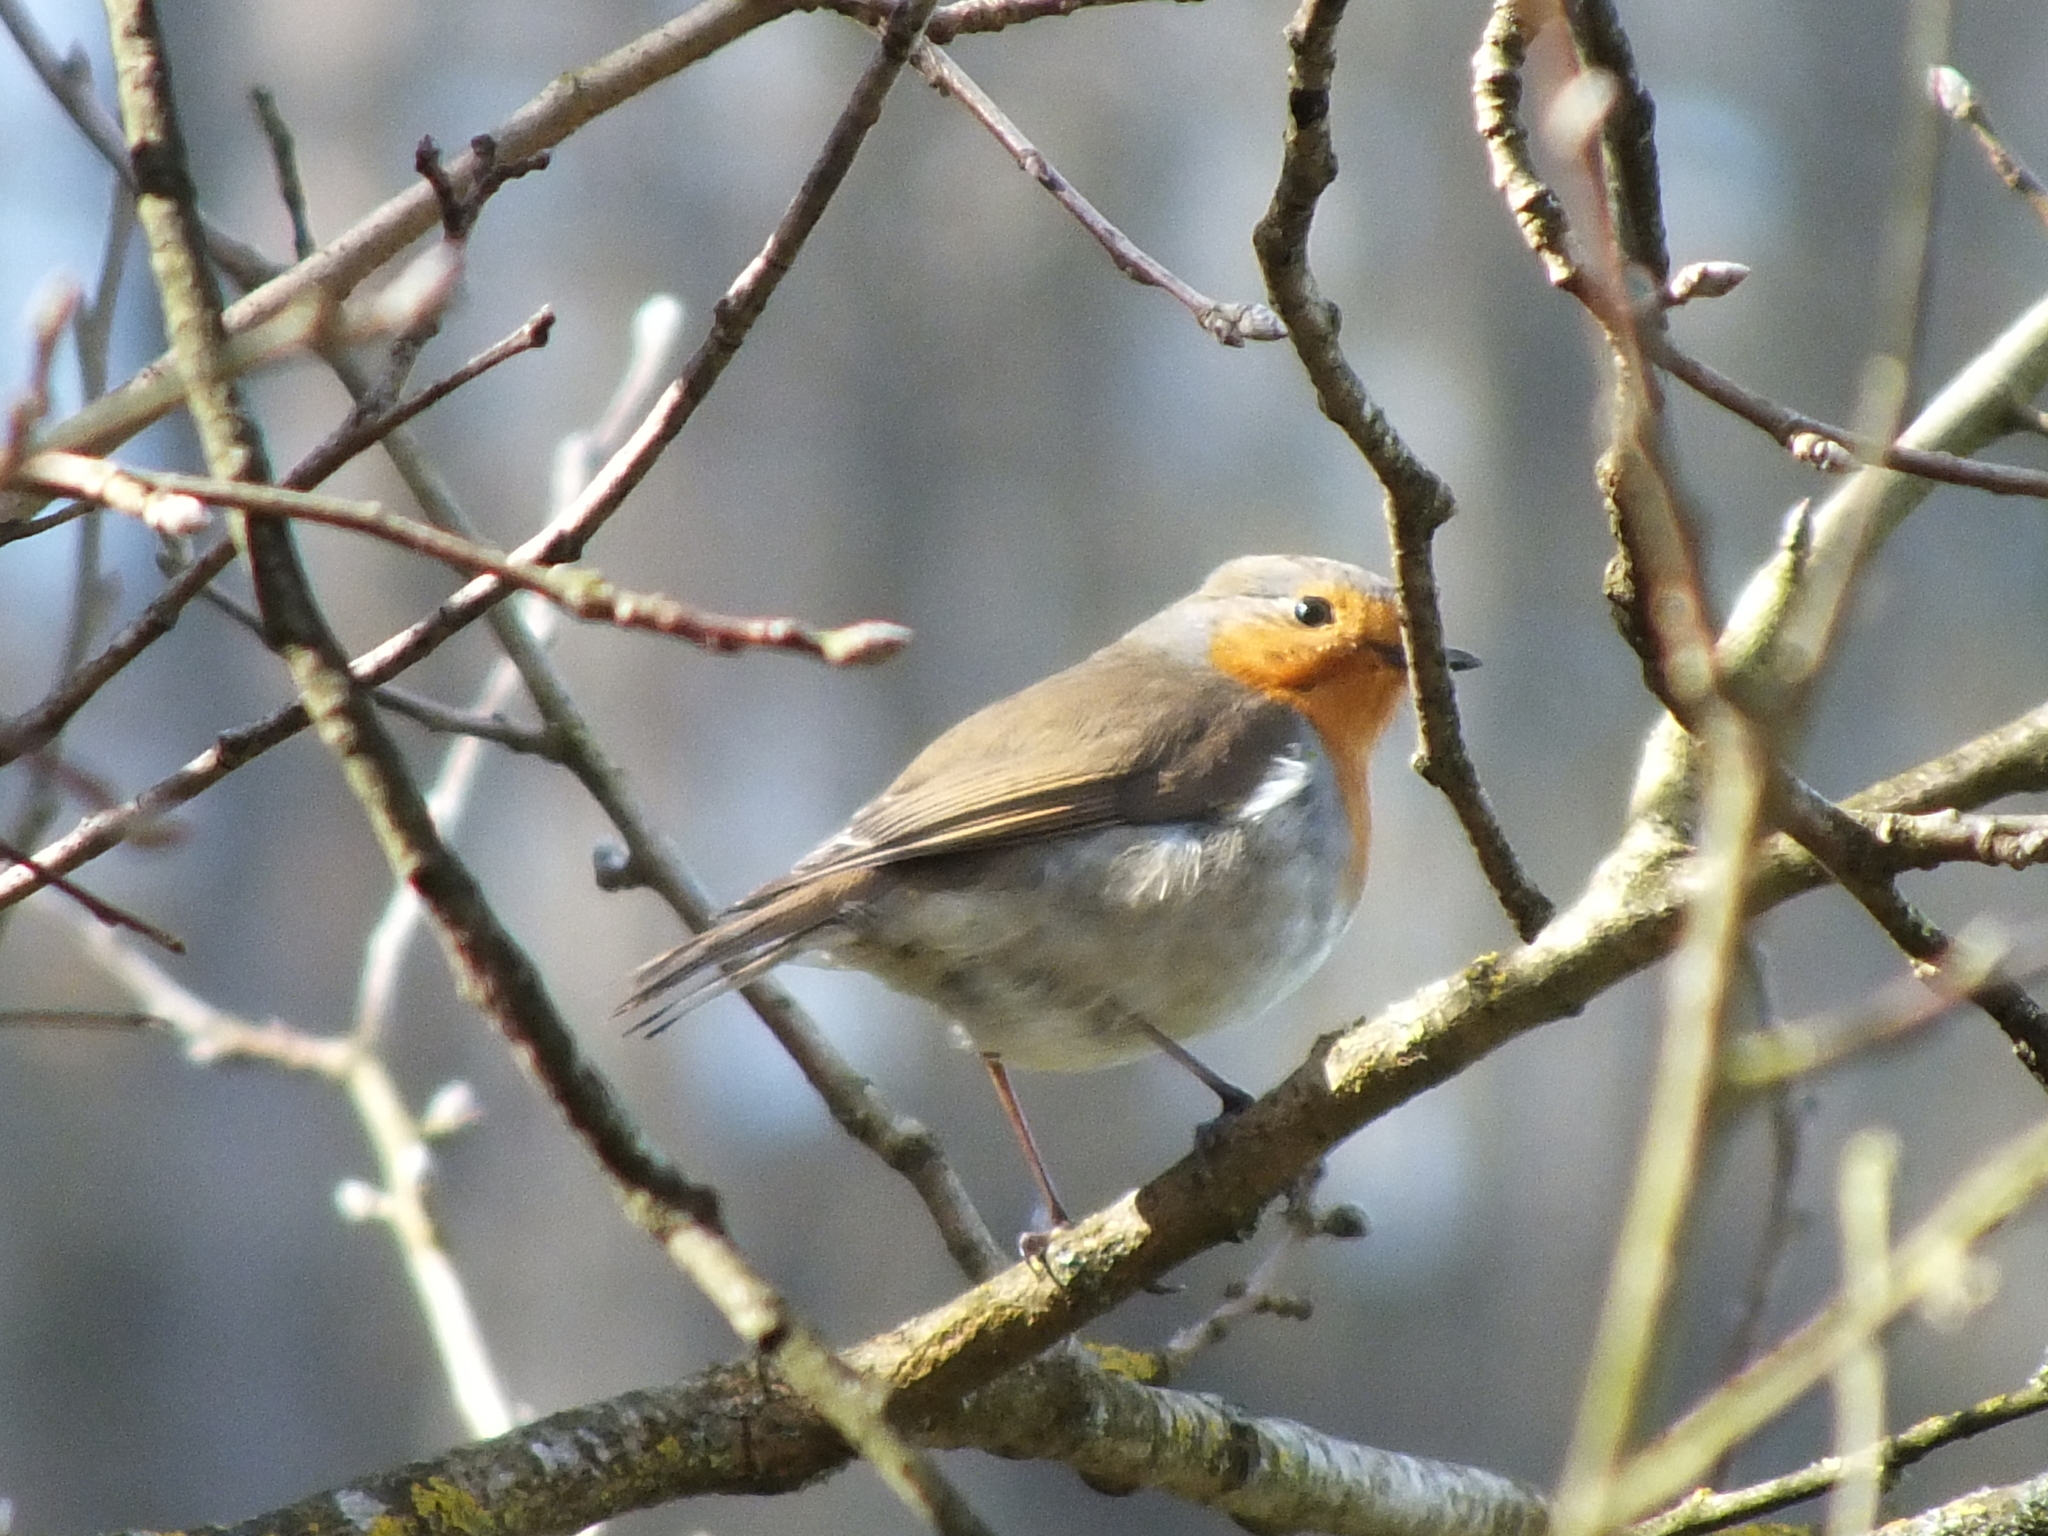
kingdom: Animalia
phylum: Chordata
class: Aves
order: Passeriformes
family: Muscicapidae
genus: Erithacus
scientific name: Erithacus rubecula
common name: European robin
